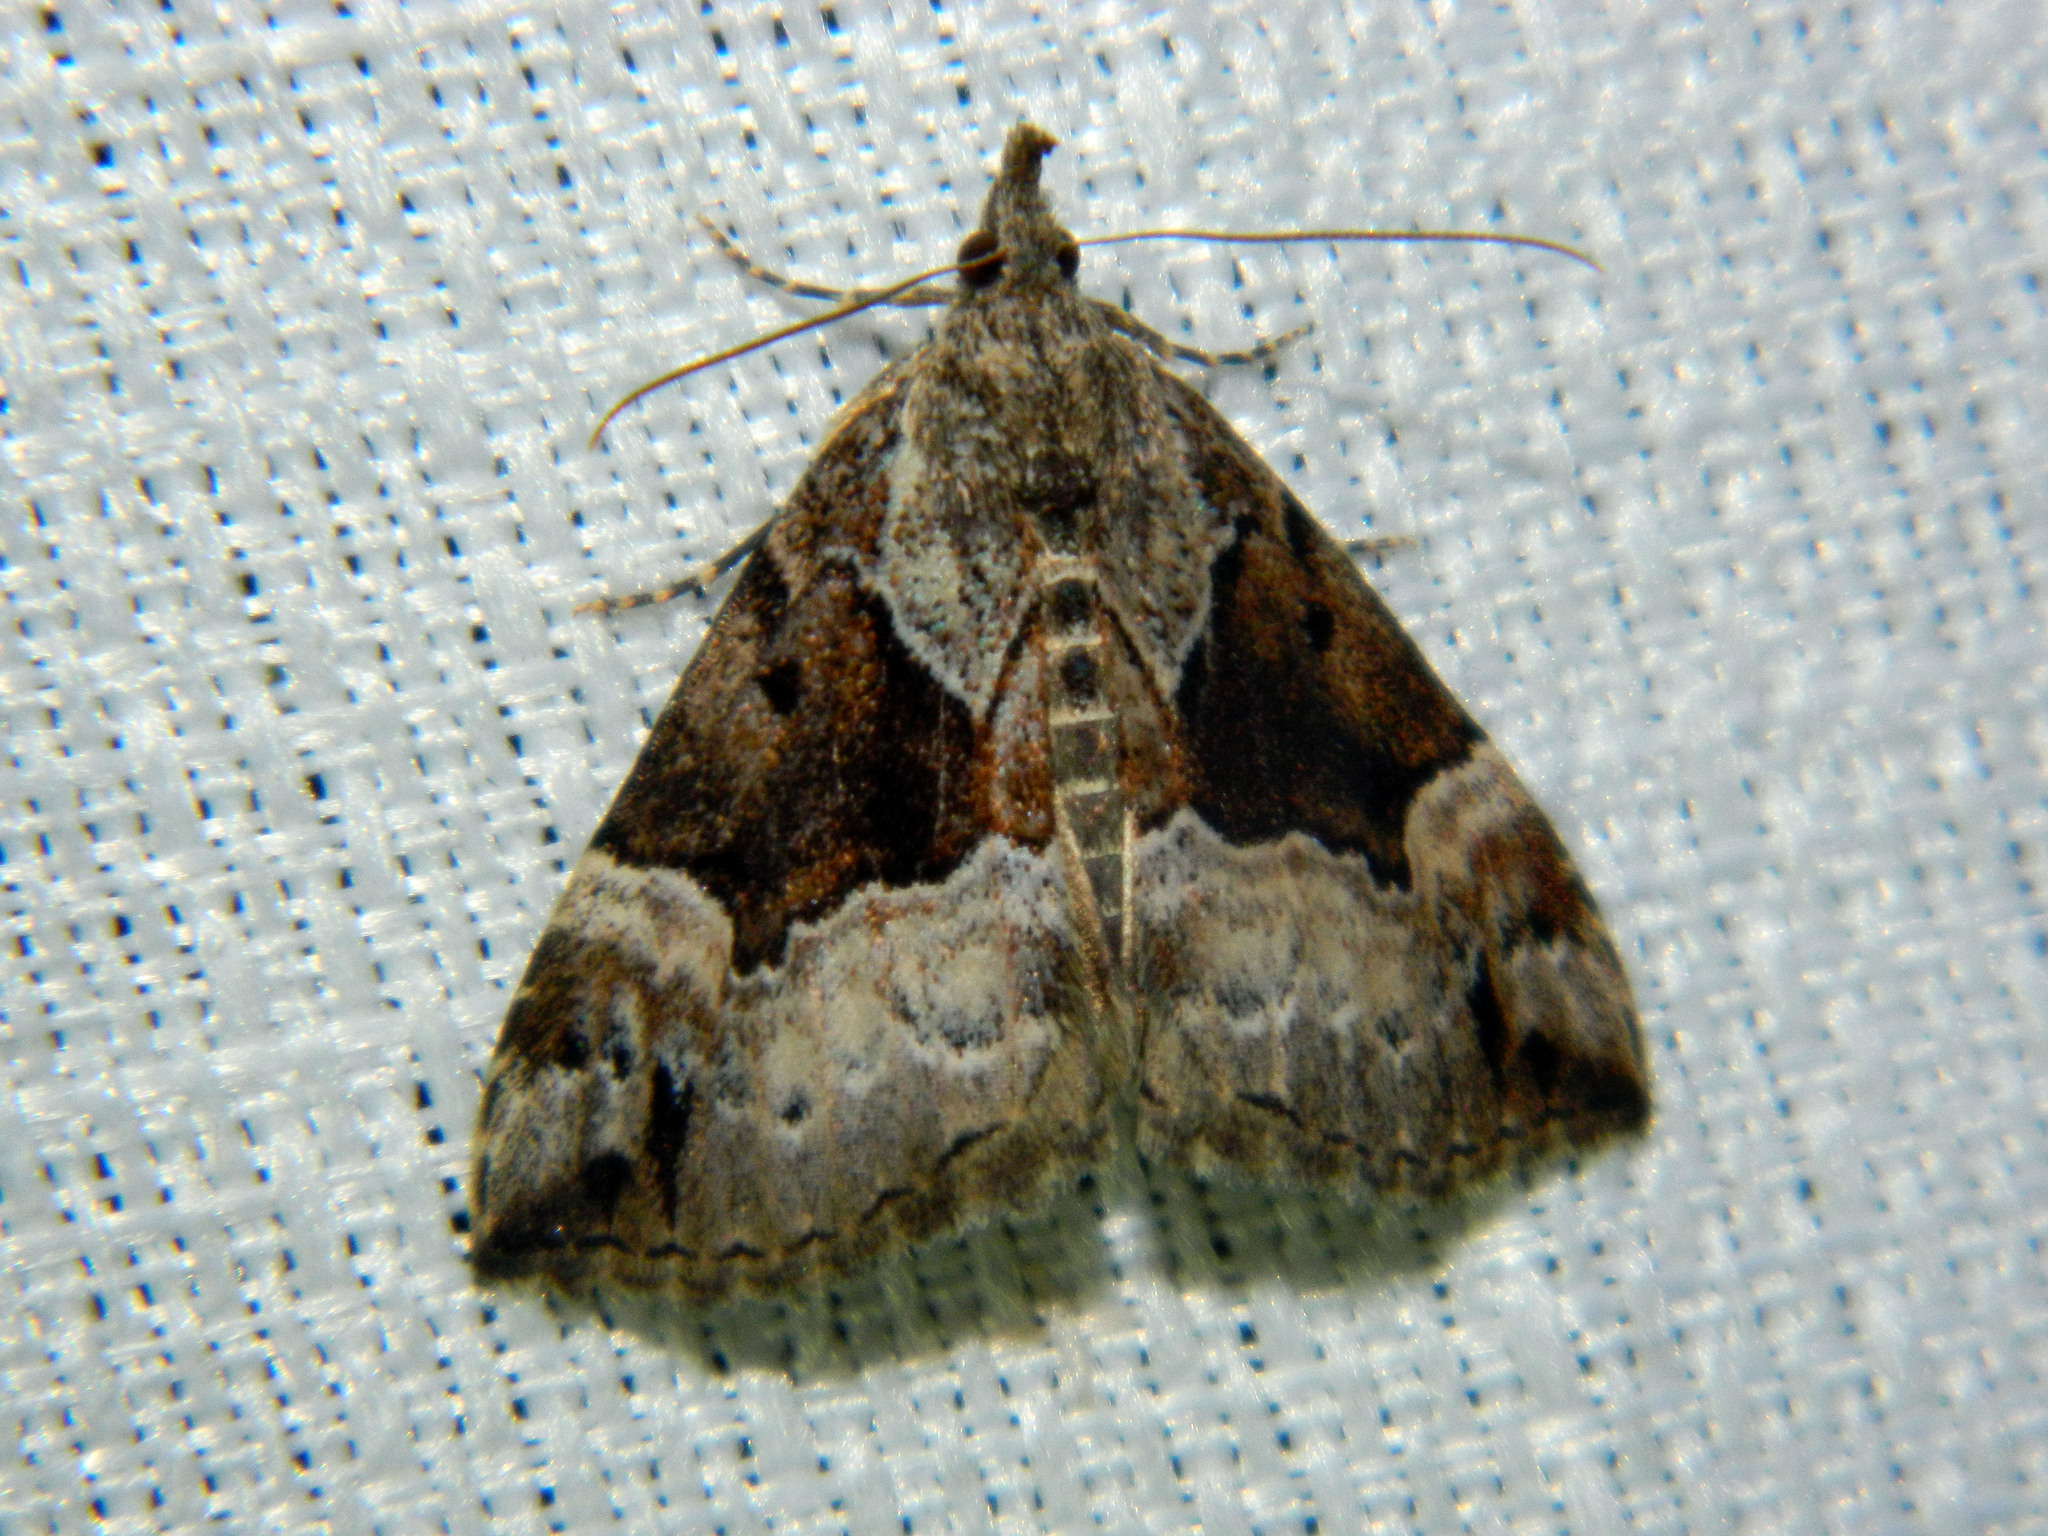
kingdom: Animalia
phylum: Arthropoda
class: Insecta
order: Lepidoptera
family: Erebidae
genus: Hypena
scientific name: Hypena palparia
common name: Mottled bomolocha moth
